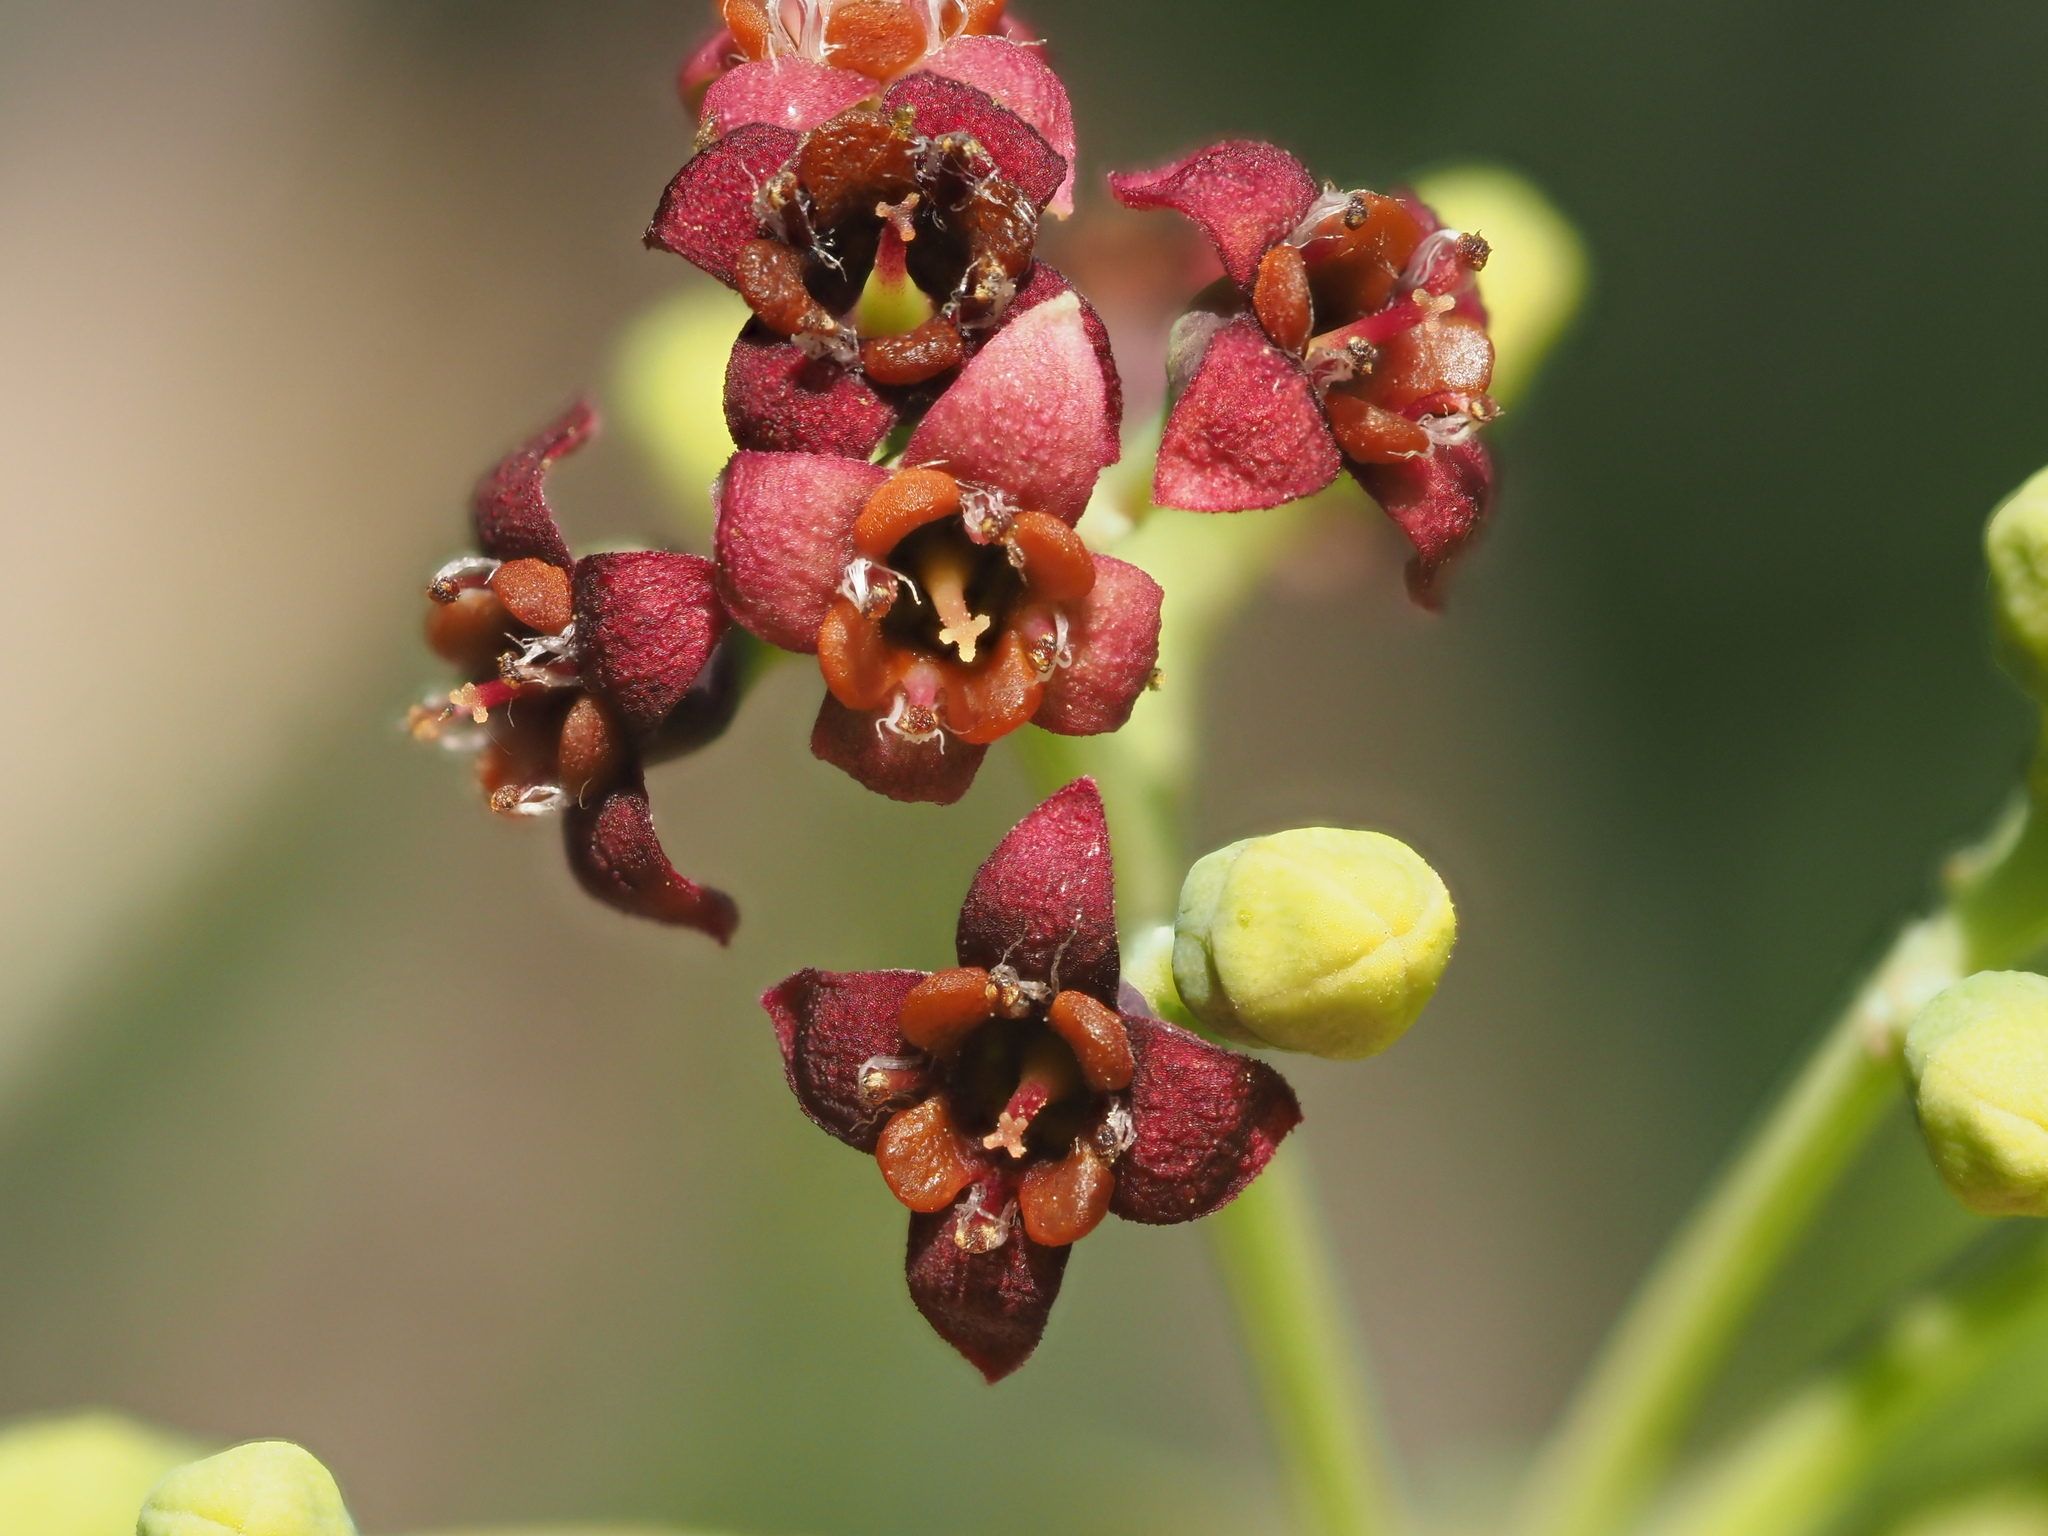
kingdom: Plantae
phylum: Tracheophyta
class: Magnoliopsida
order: Santalales
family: Santalaceae
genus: Santalum
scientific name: Santalum album
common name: Indian sandalwood
